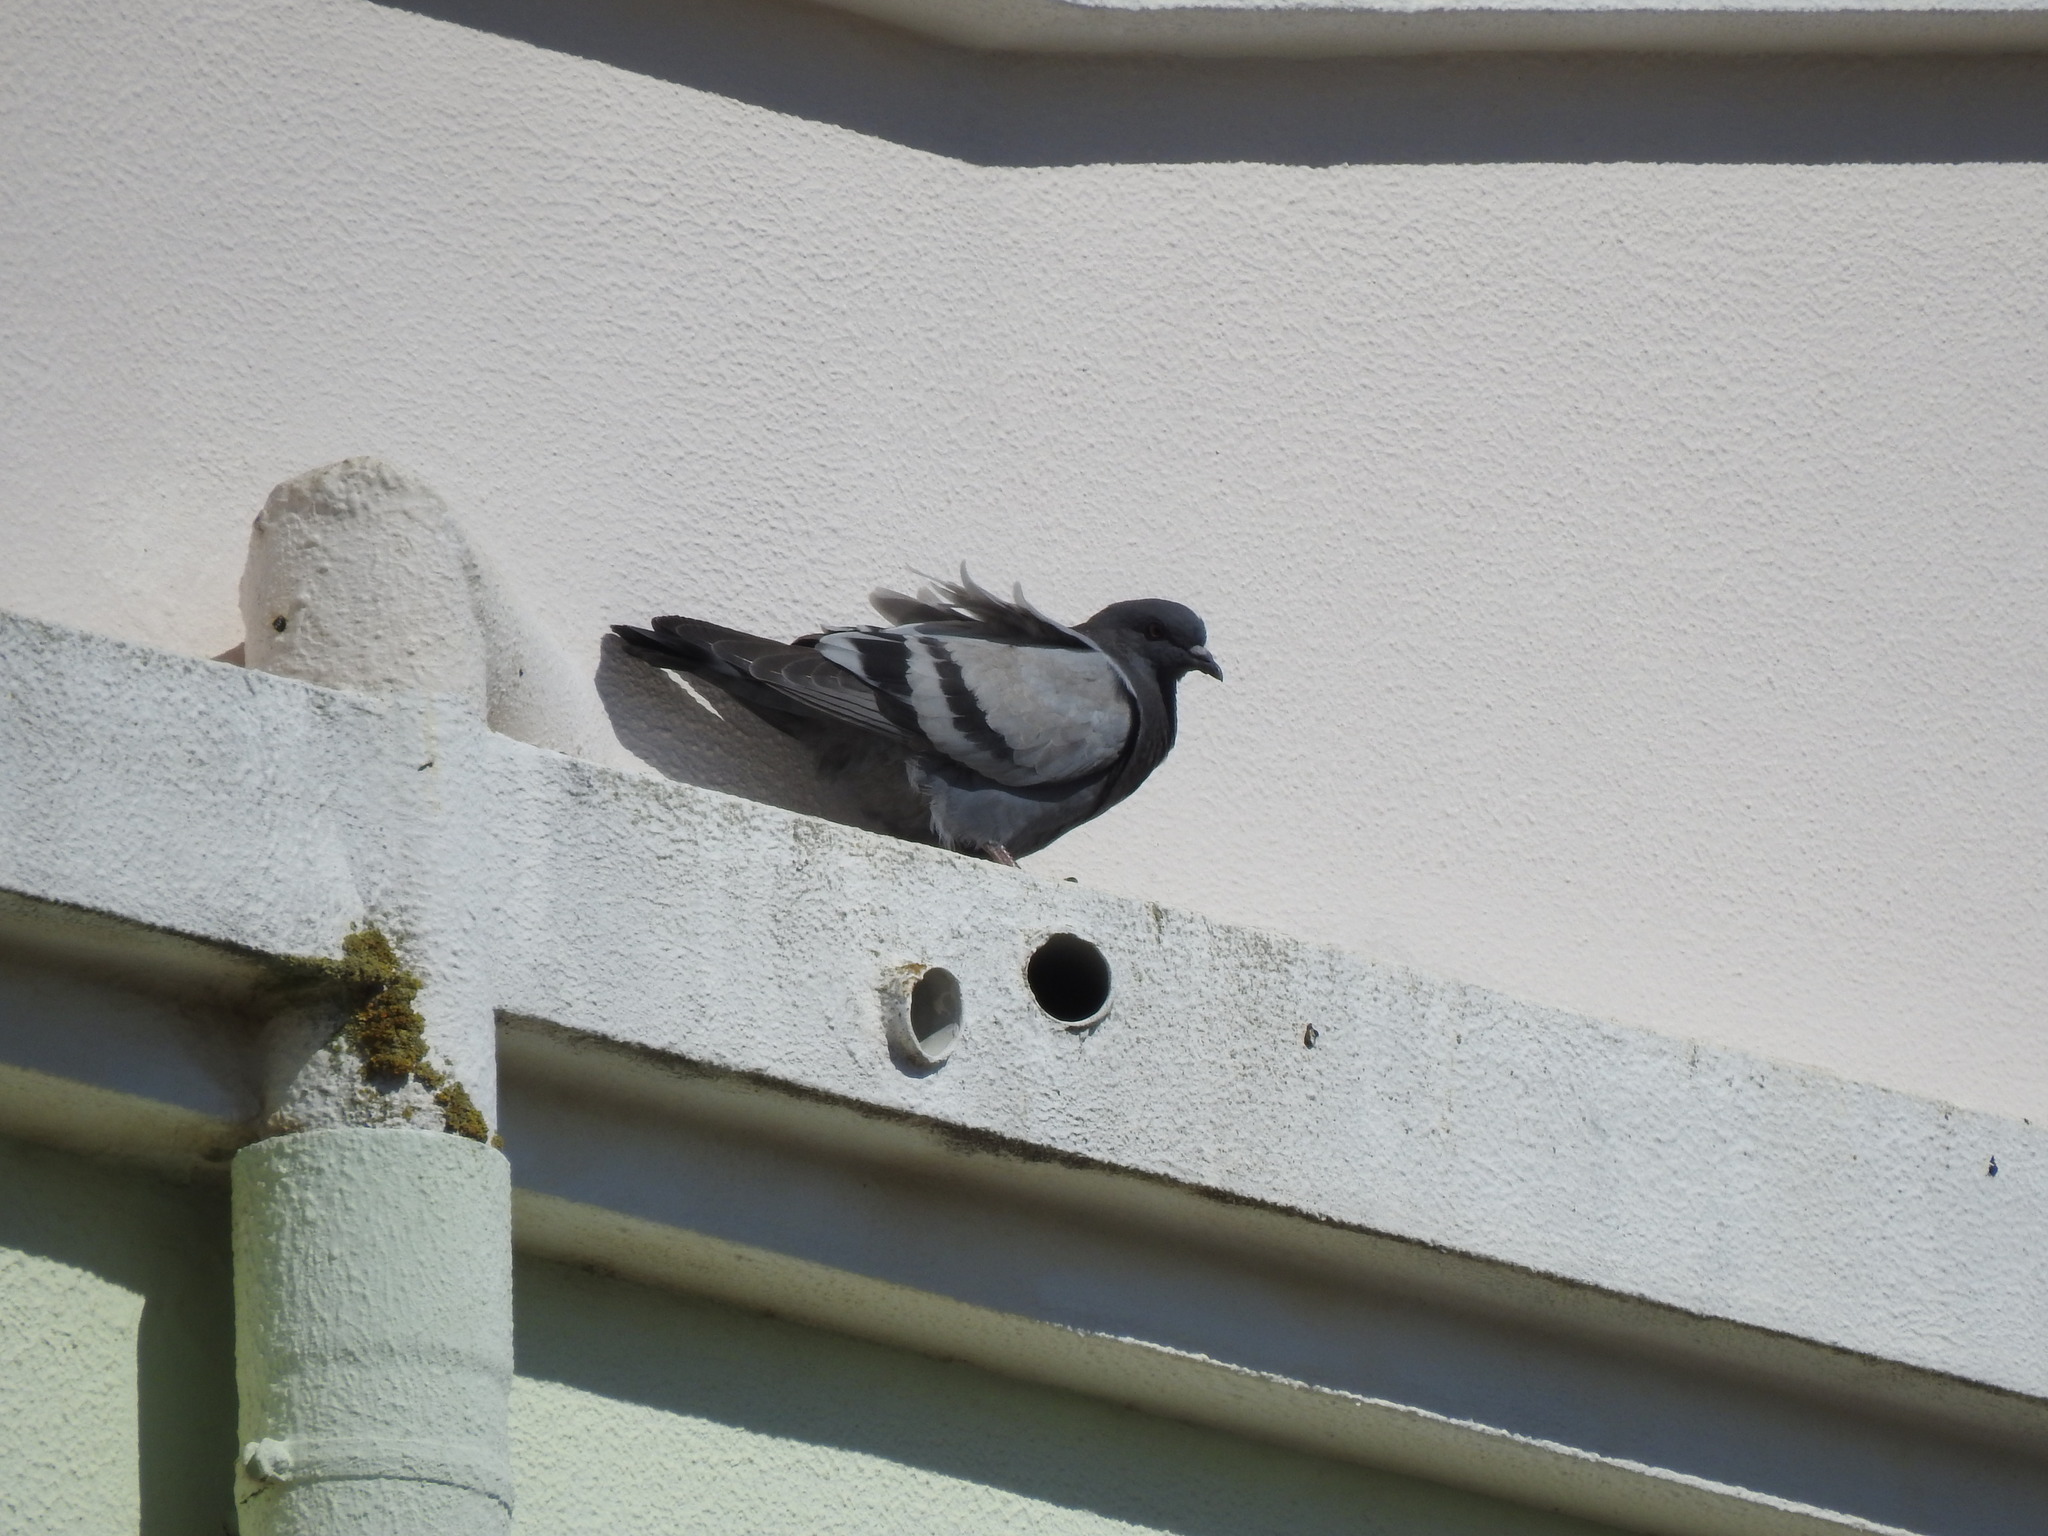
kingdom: Animalia
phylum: Chordata
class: Aves
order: Columbiformes
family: Columbidae
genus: Columba
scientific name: Columba livia
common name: Rock pigeon
